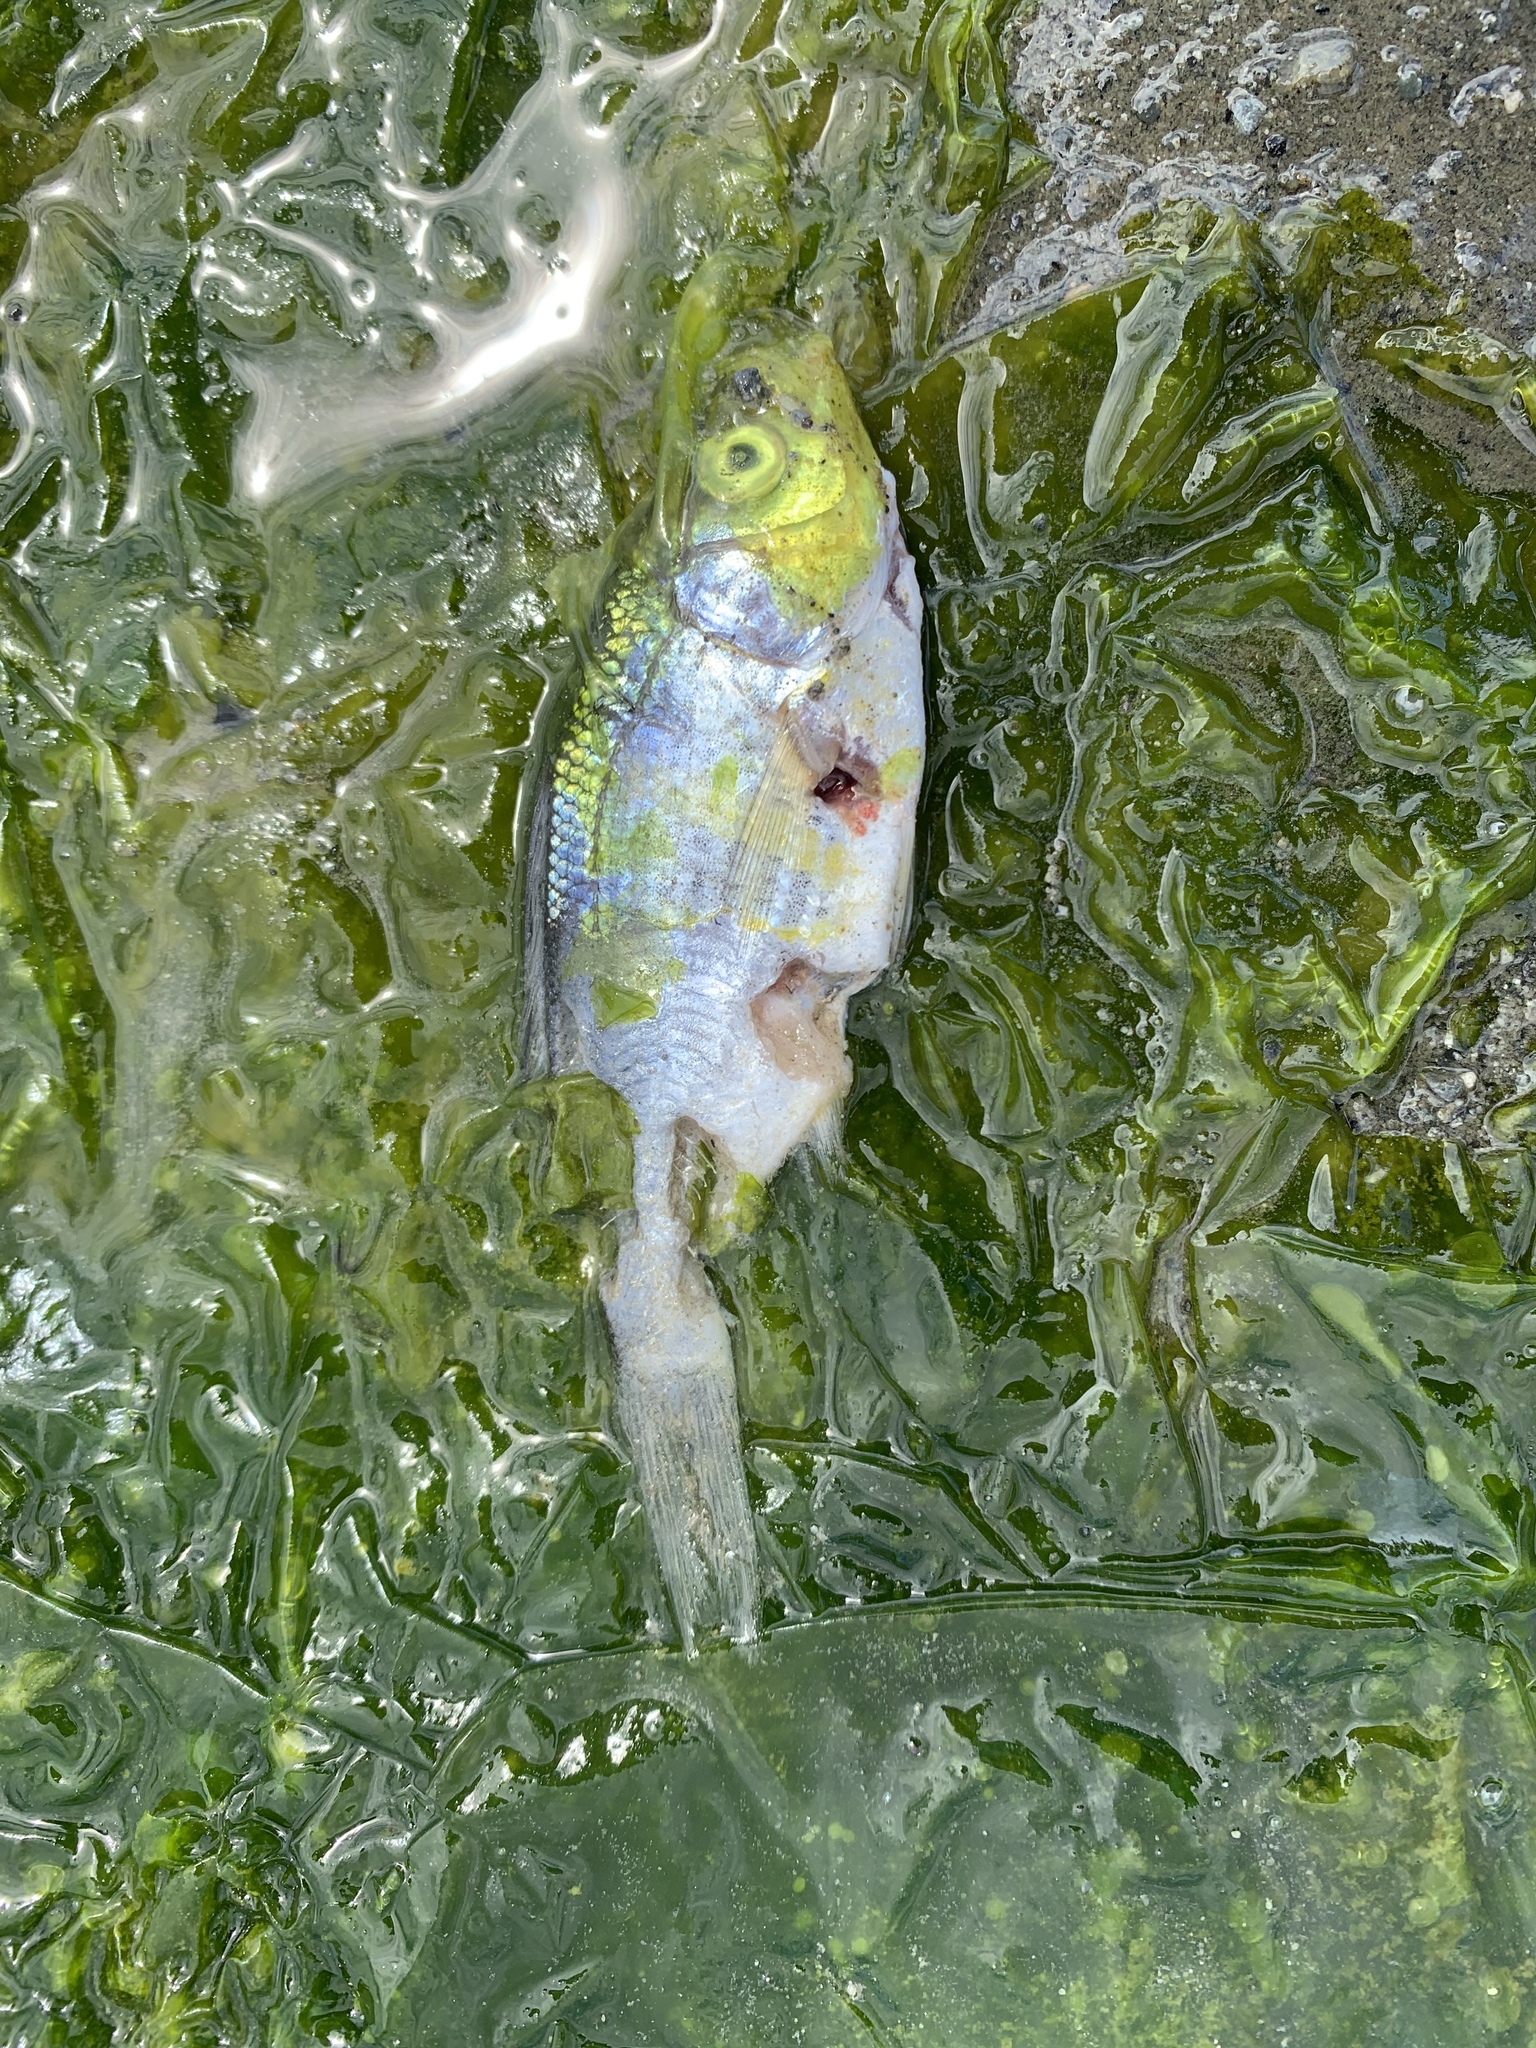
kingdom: Animalia
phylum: Chordata
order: Perciformes
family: Embiotocidae
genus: Cymatogaster
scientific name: Cymatogaster aggregata
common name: Shiner perch
